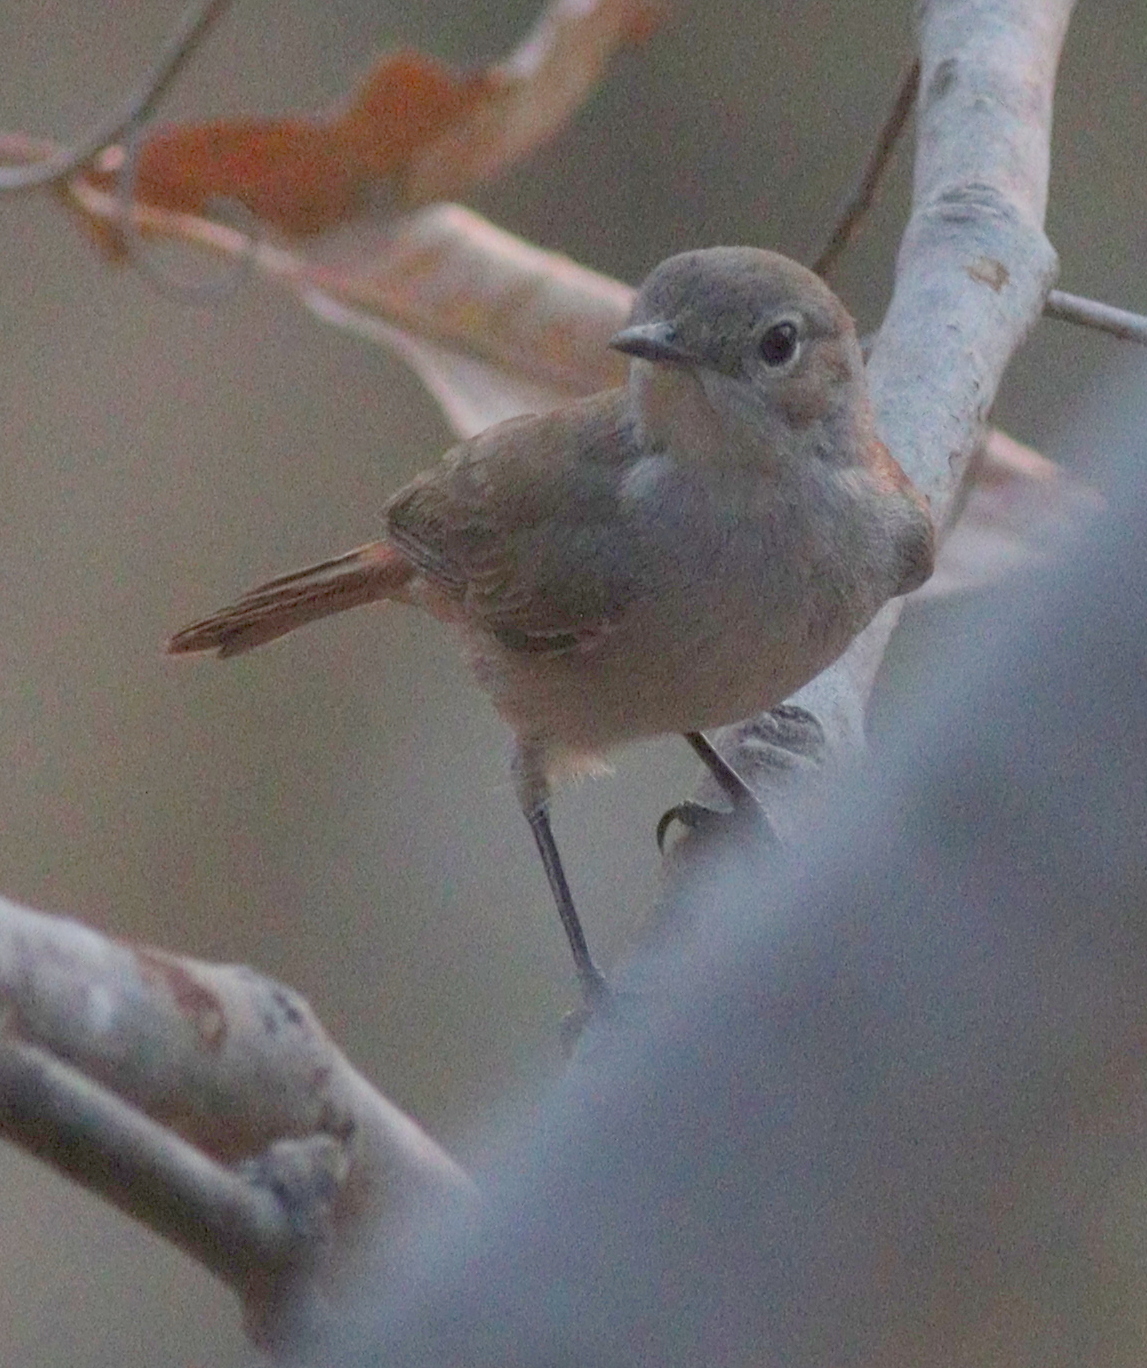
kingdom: Animalia
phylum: Chordata
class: Aves
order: Passeriformes
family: Muscicapidae
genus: Oenanthe
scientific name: Oenanthe familiaris
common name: Familiar chat
